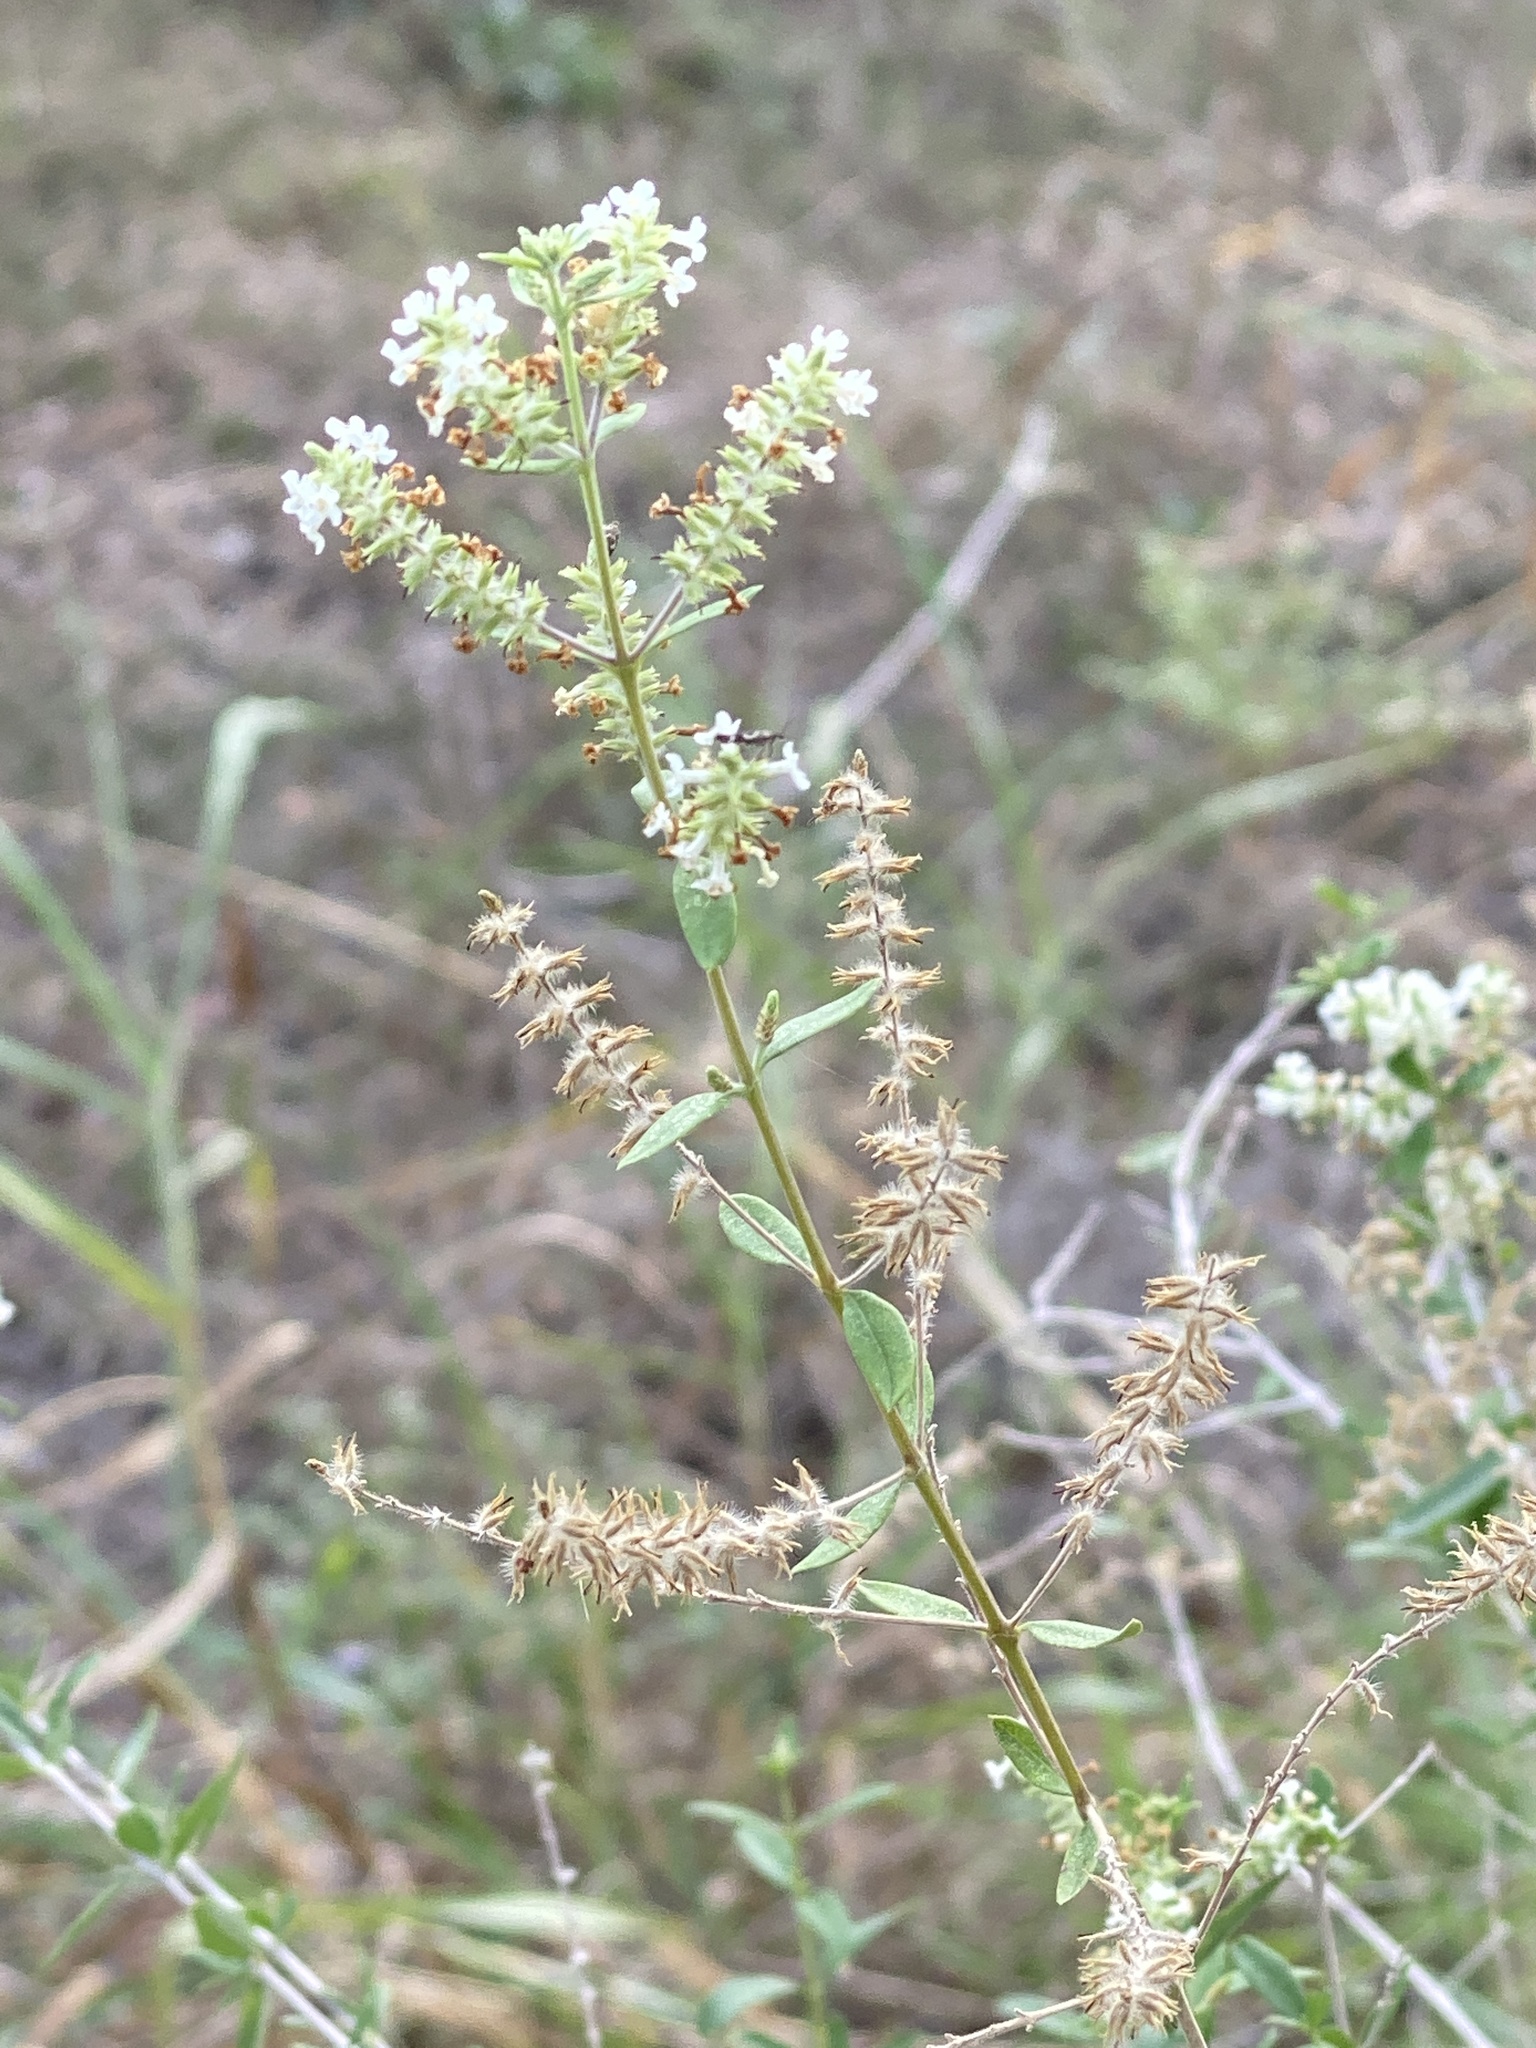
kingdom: Plantae
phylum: Tracheophyta
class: Magnoliopsida
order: Lamiales
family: Verbenaceae
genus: Aloysia
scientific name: Aloysia gratissima
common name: Common bee-brush
